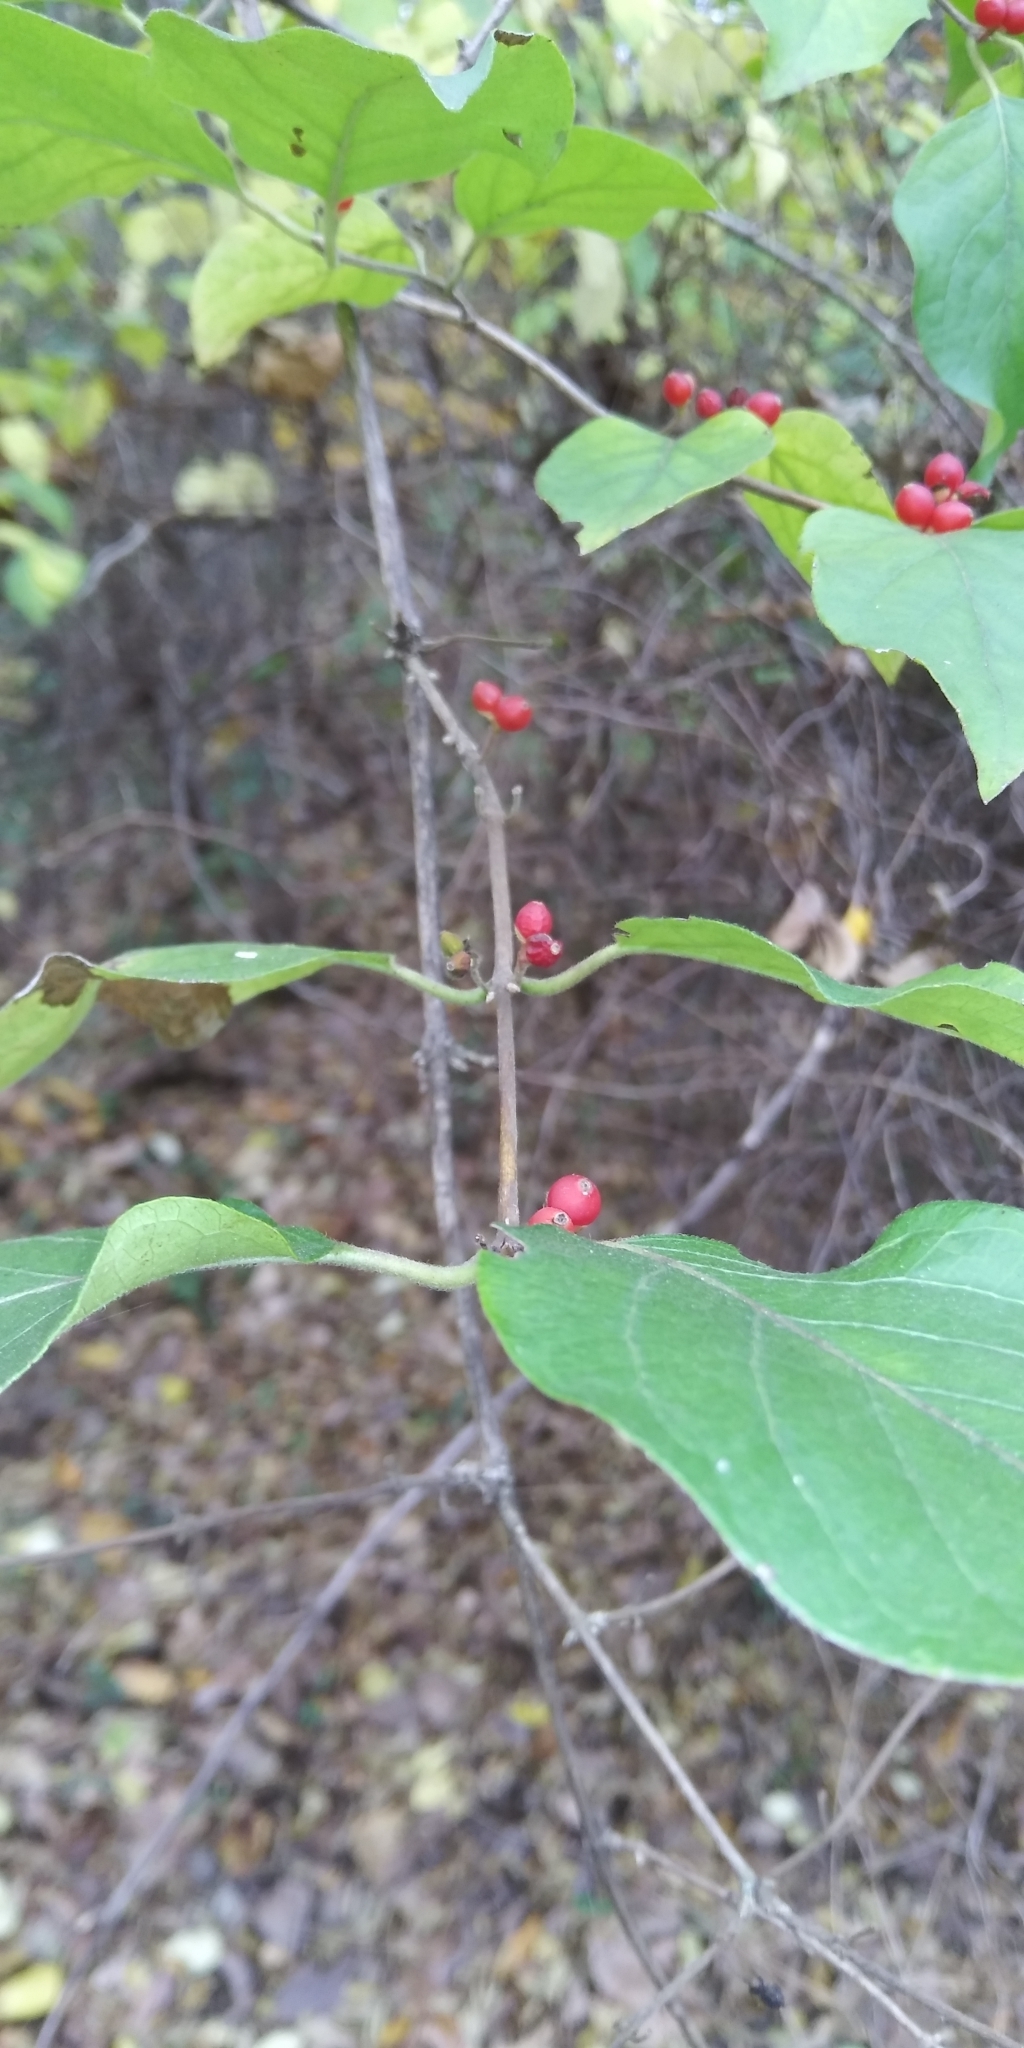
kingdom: Plantae
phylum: Tracheophyta
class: Magnoliopsida
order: Dipsacales
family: Caprifoliaceae
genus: Lonicera
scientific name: Lonicera maackii
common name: Amur honeysuckle
